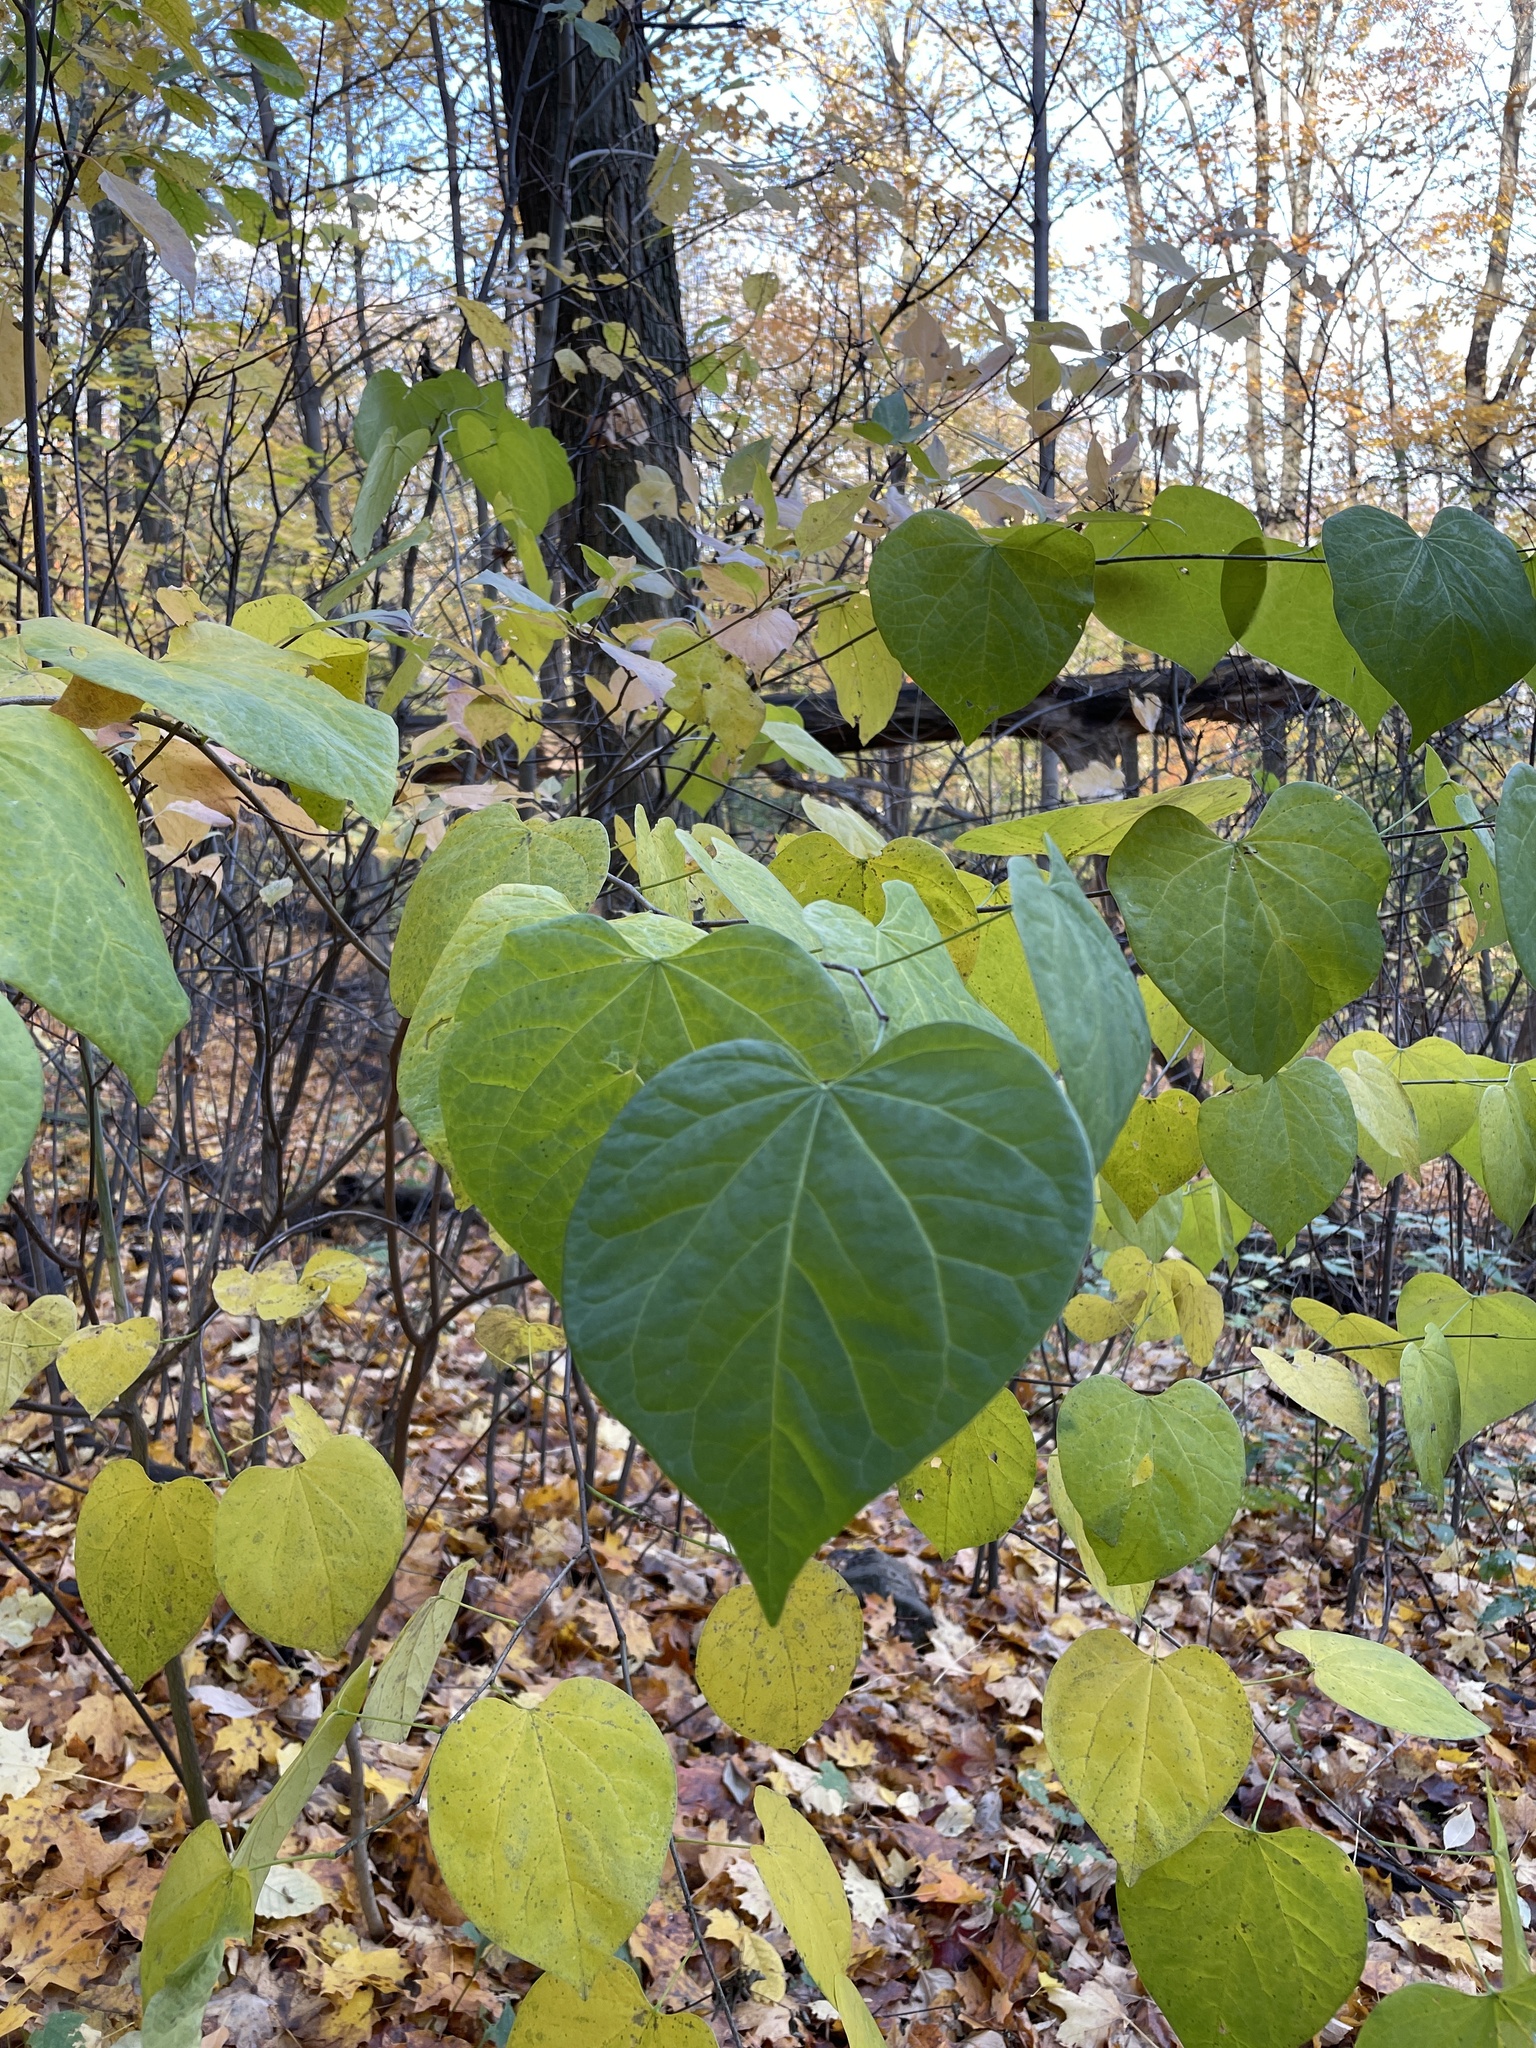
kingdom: Plantae
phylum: Tracheophyta
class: Magnoliopsida
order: Fabales
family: Fabaceae
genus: Cercis
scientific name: Cercis canadensis
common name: Eastern redbud
